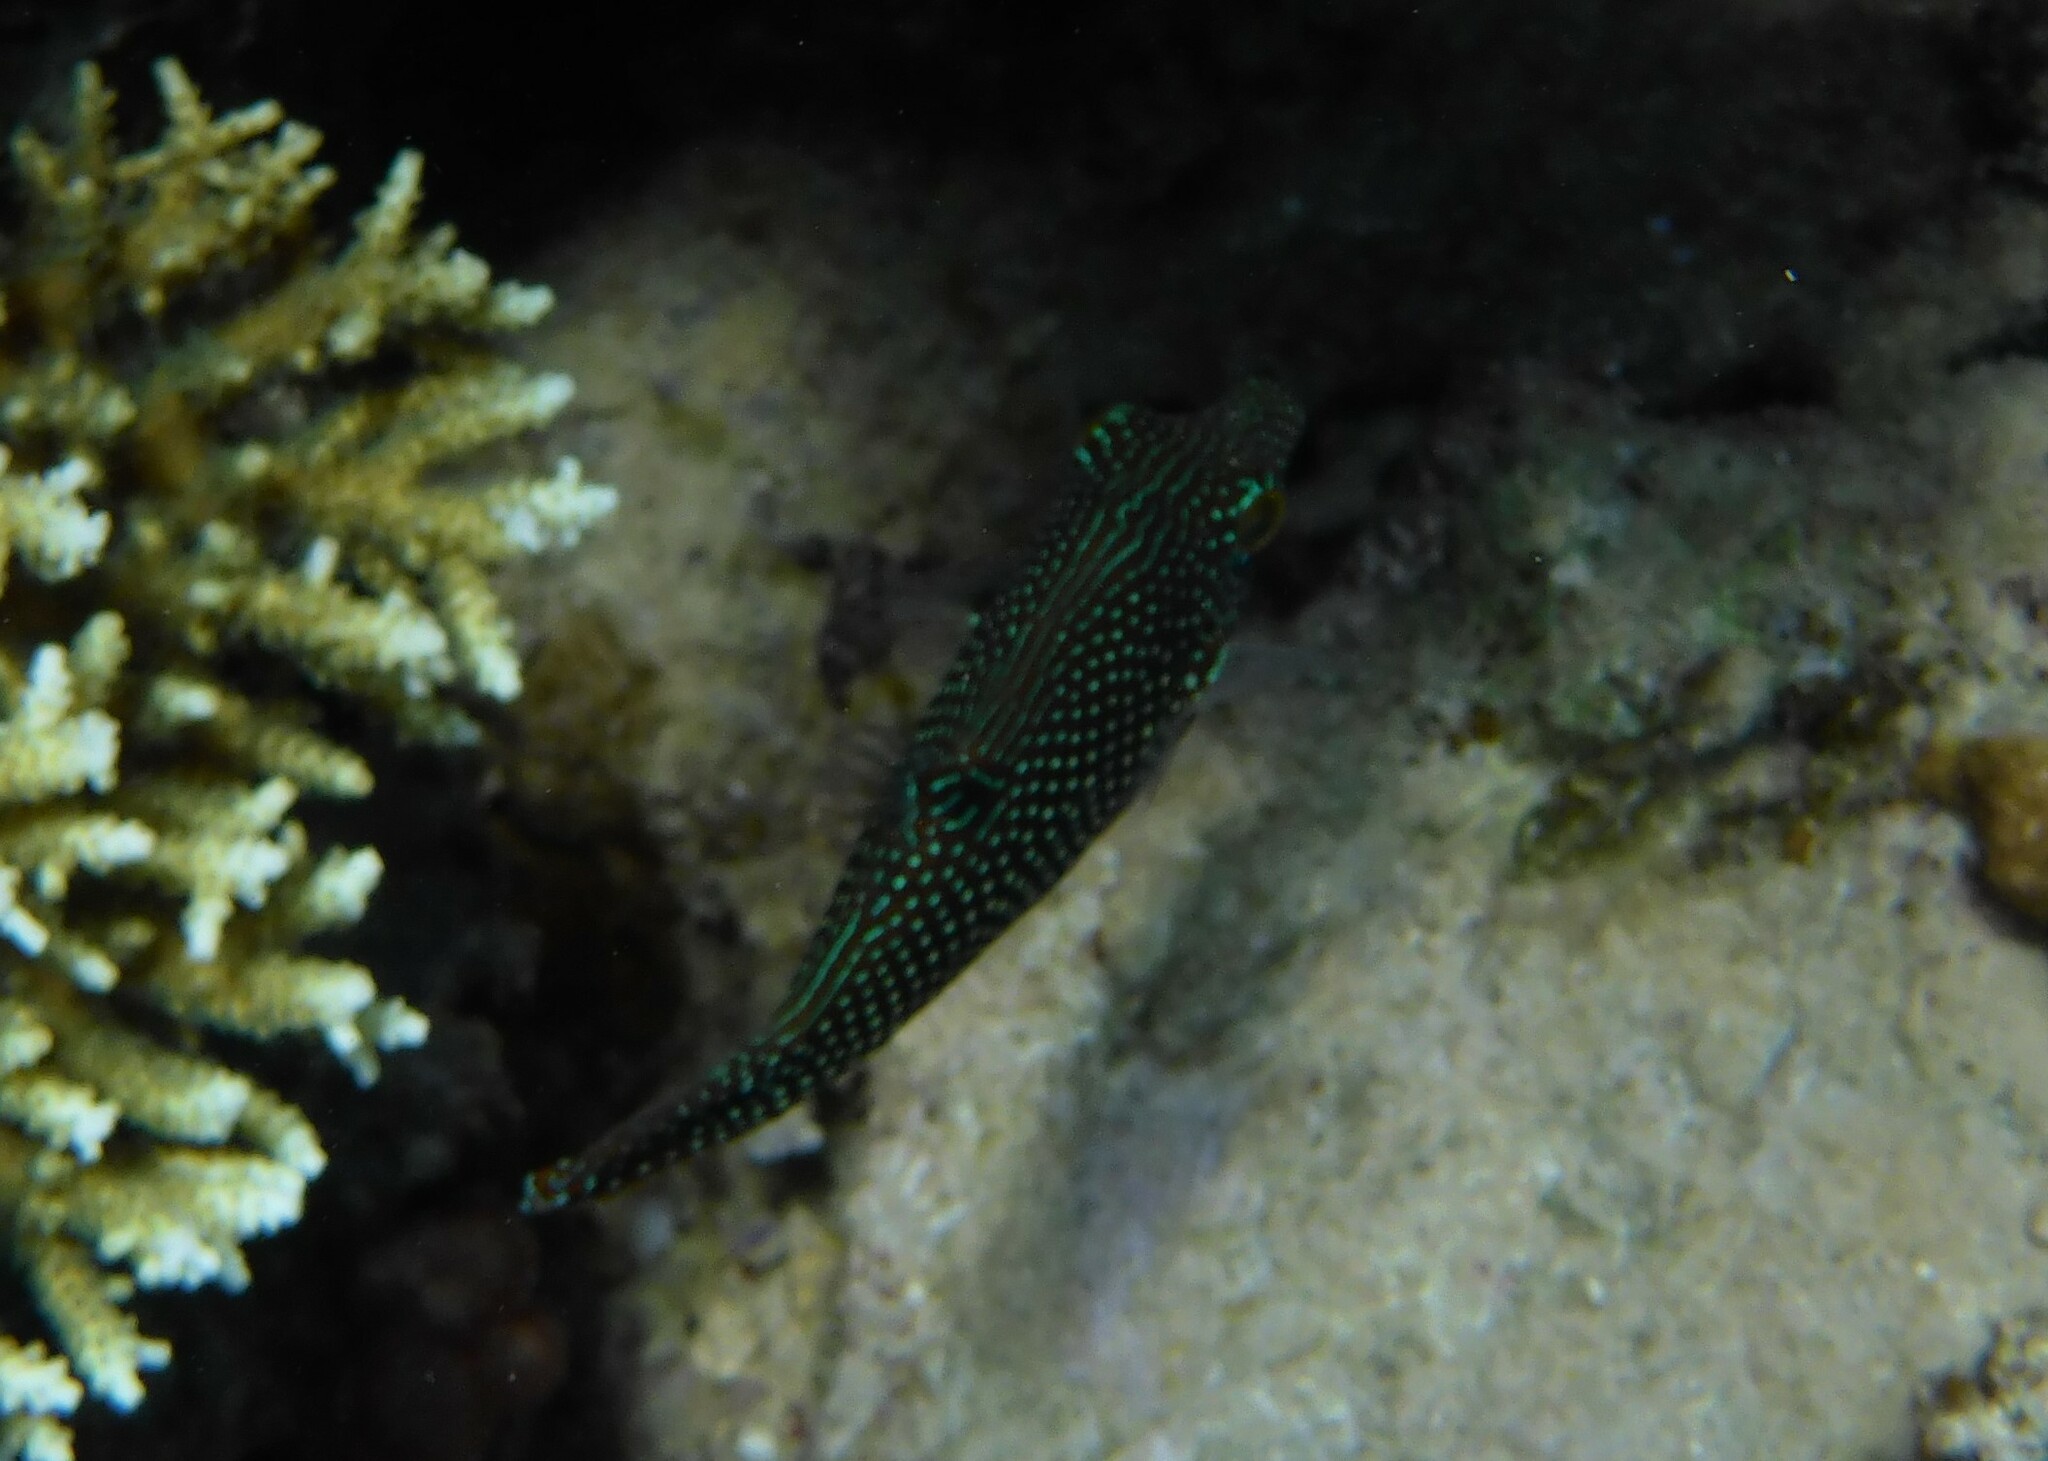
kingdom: Animalia
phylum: Chordata
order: Tetraodontiformes
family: Tetraodontidae
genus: Canthigaster
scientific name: Canthigaster margaritata
